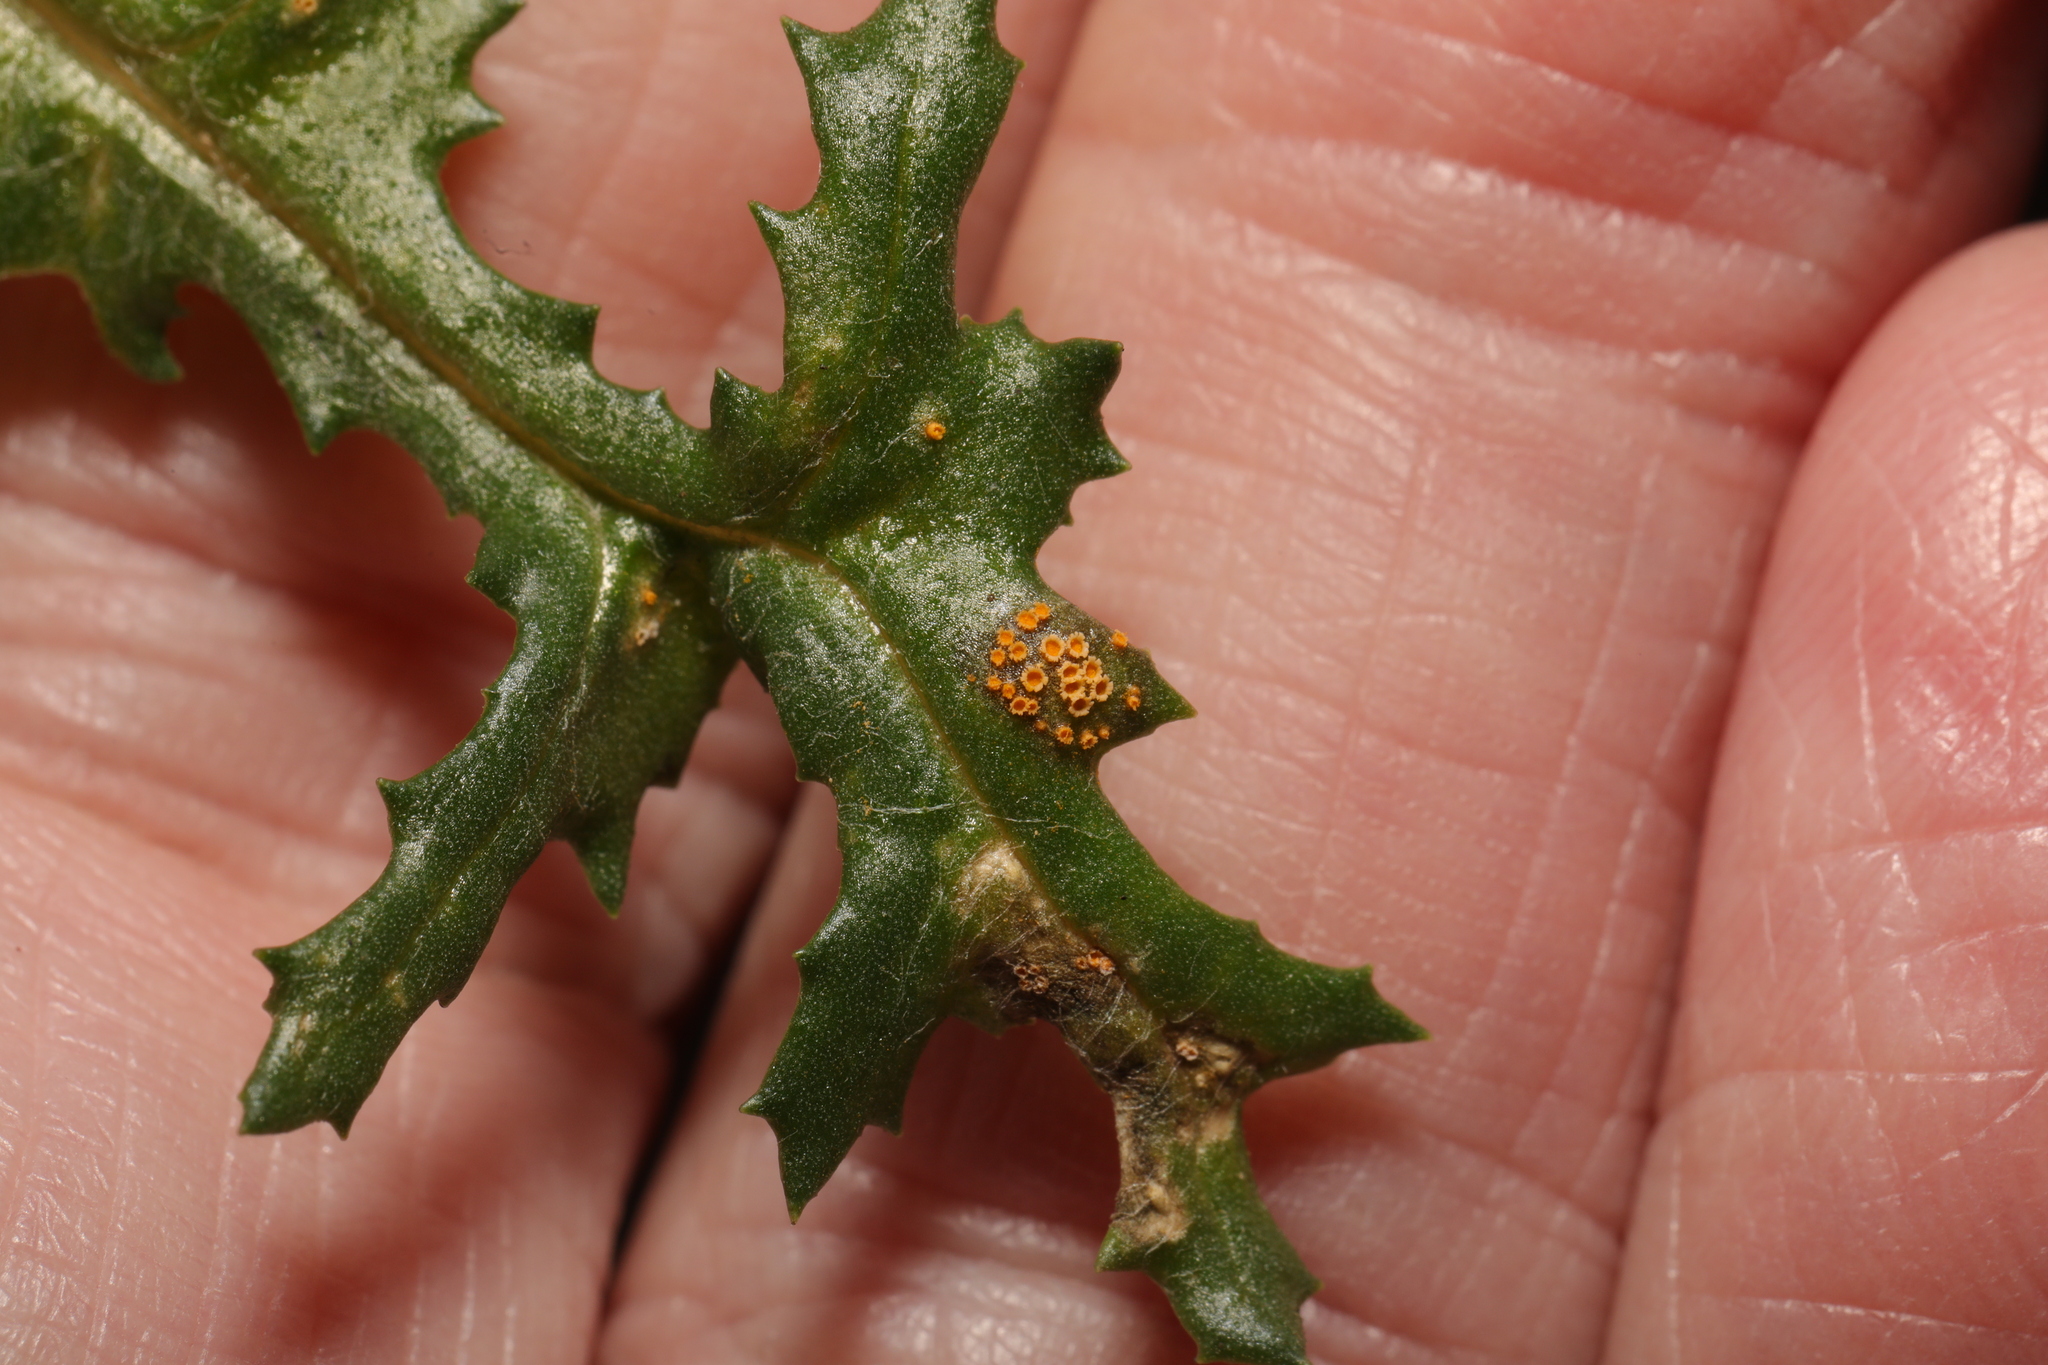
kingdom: Fungi
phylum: Basidiomycota
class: Pucciniomycetes
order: Pucciniales
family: Pucciniaceae
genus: Puccinia
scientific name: Puccinia lagenophorae
